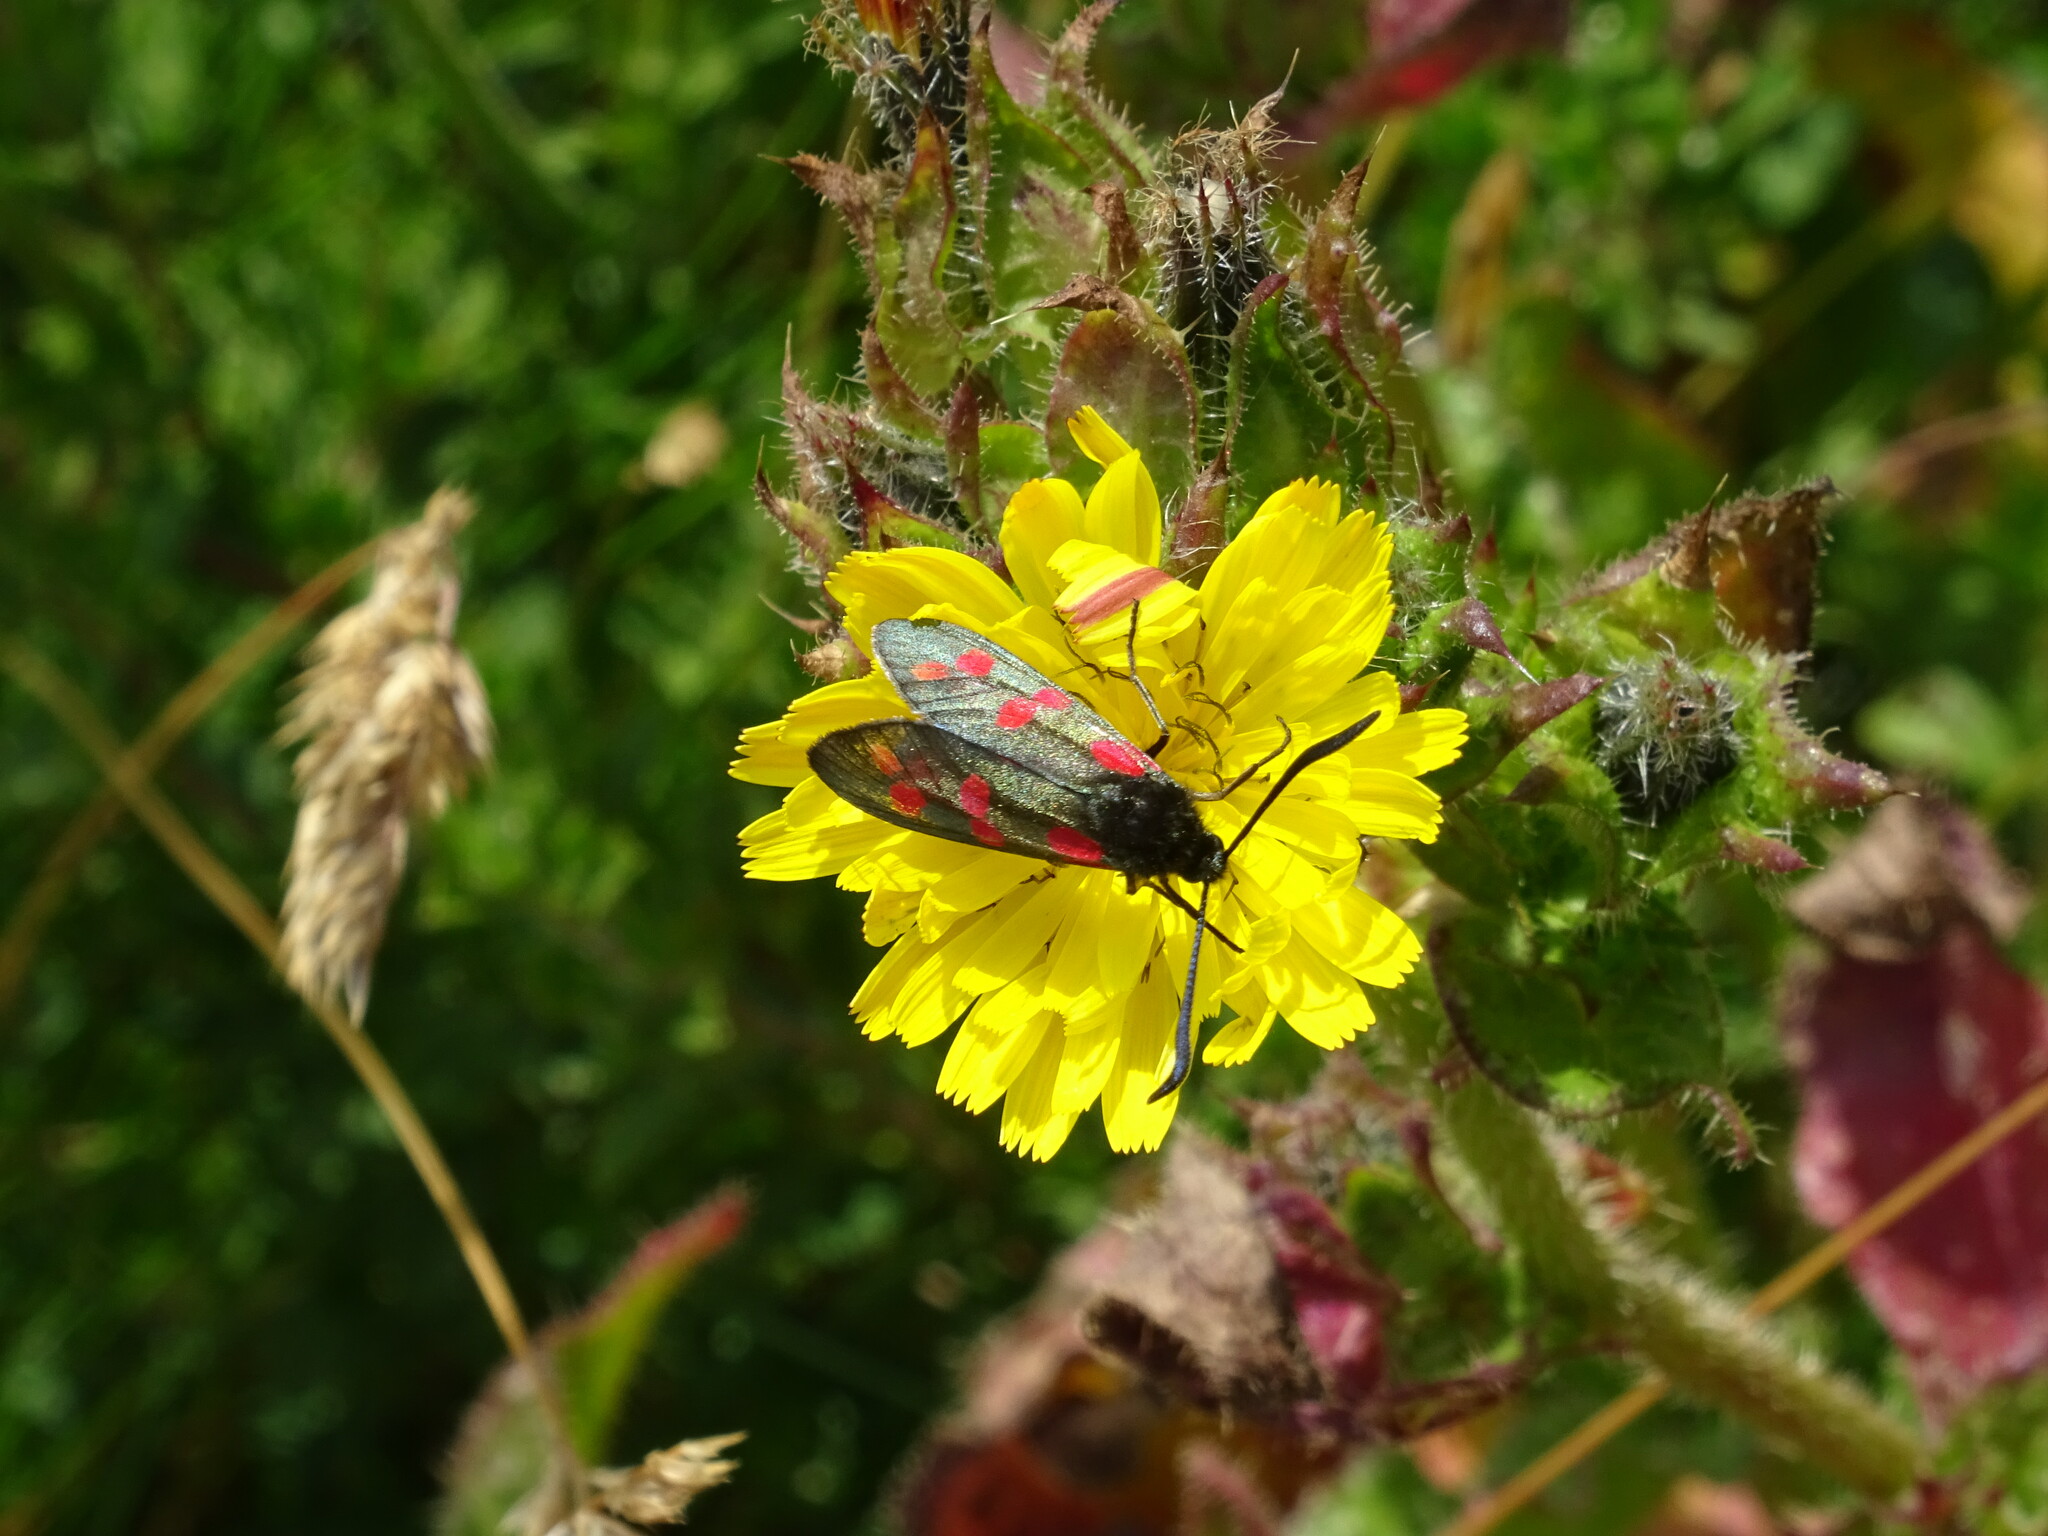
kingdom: Animalia
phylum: Arthropoda
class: Insecta
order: Lepidoptera
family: Zygaenidae
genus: Zygaena
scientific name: Zygaena filipendulae
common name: Six-spot burnet
